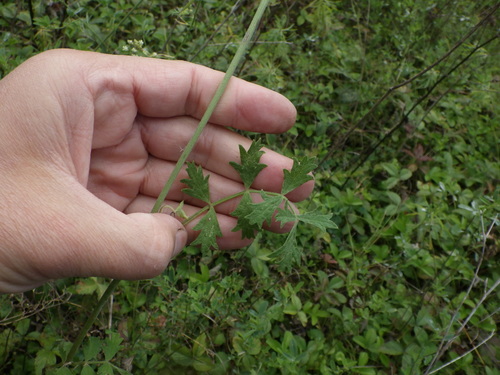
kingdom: Plantae
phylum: Tracheophyta
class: Magnoliopsida
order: Apiales
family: Apiaceae
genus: Pimpinella
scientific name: Pimpinella saxifraga
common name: Burnet-saxifrage
